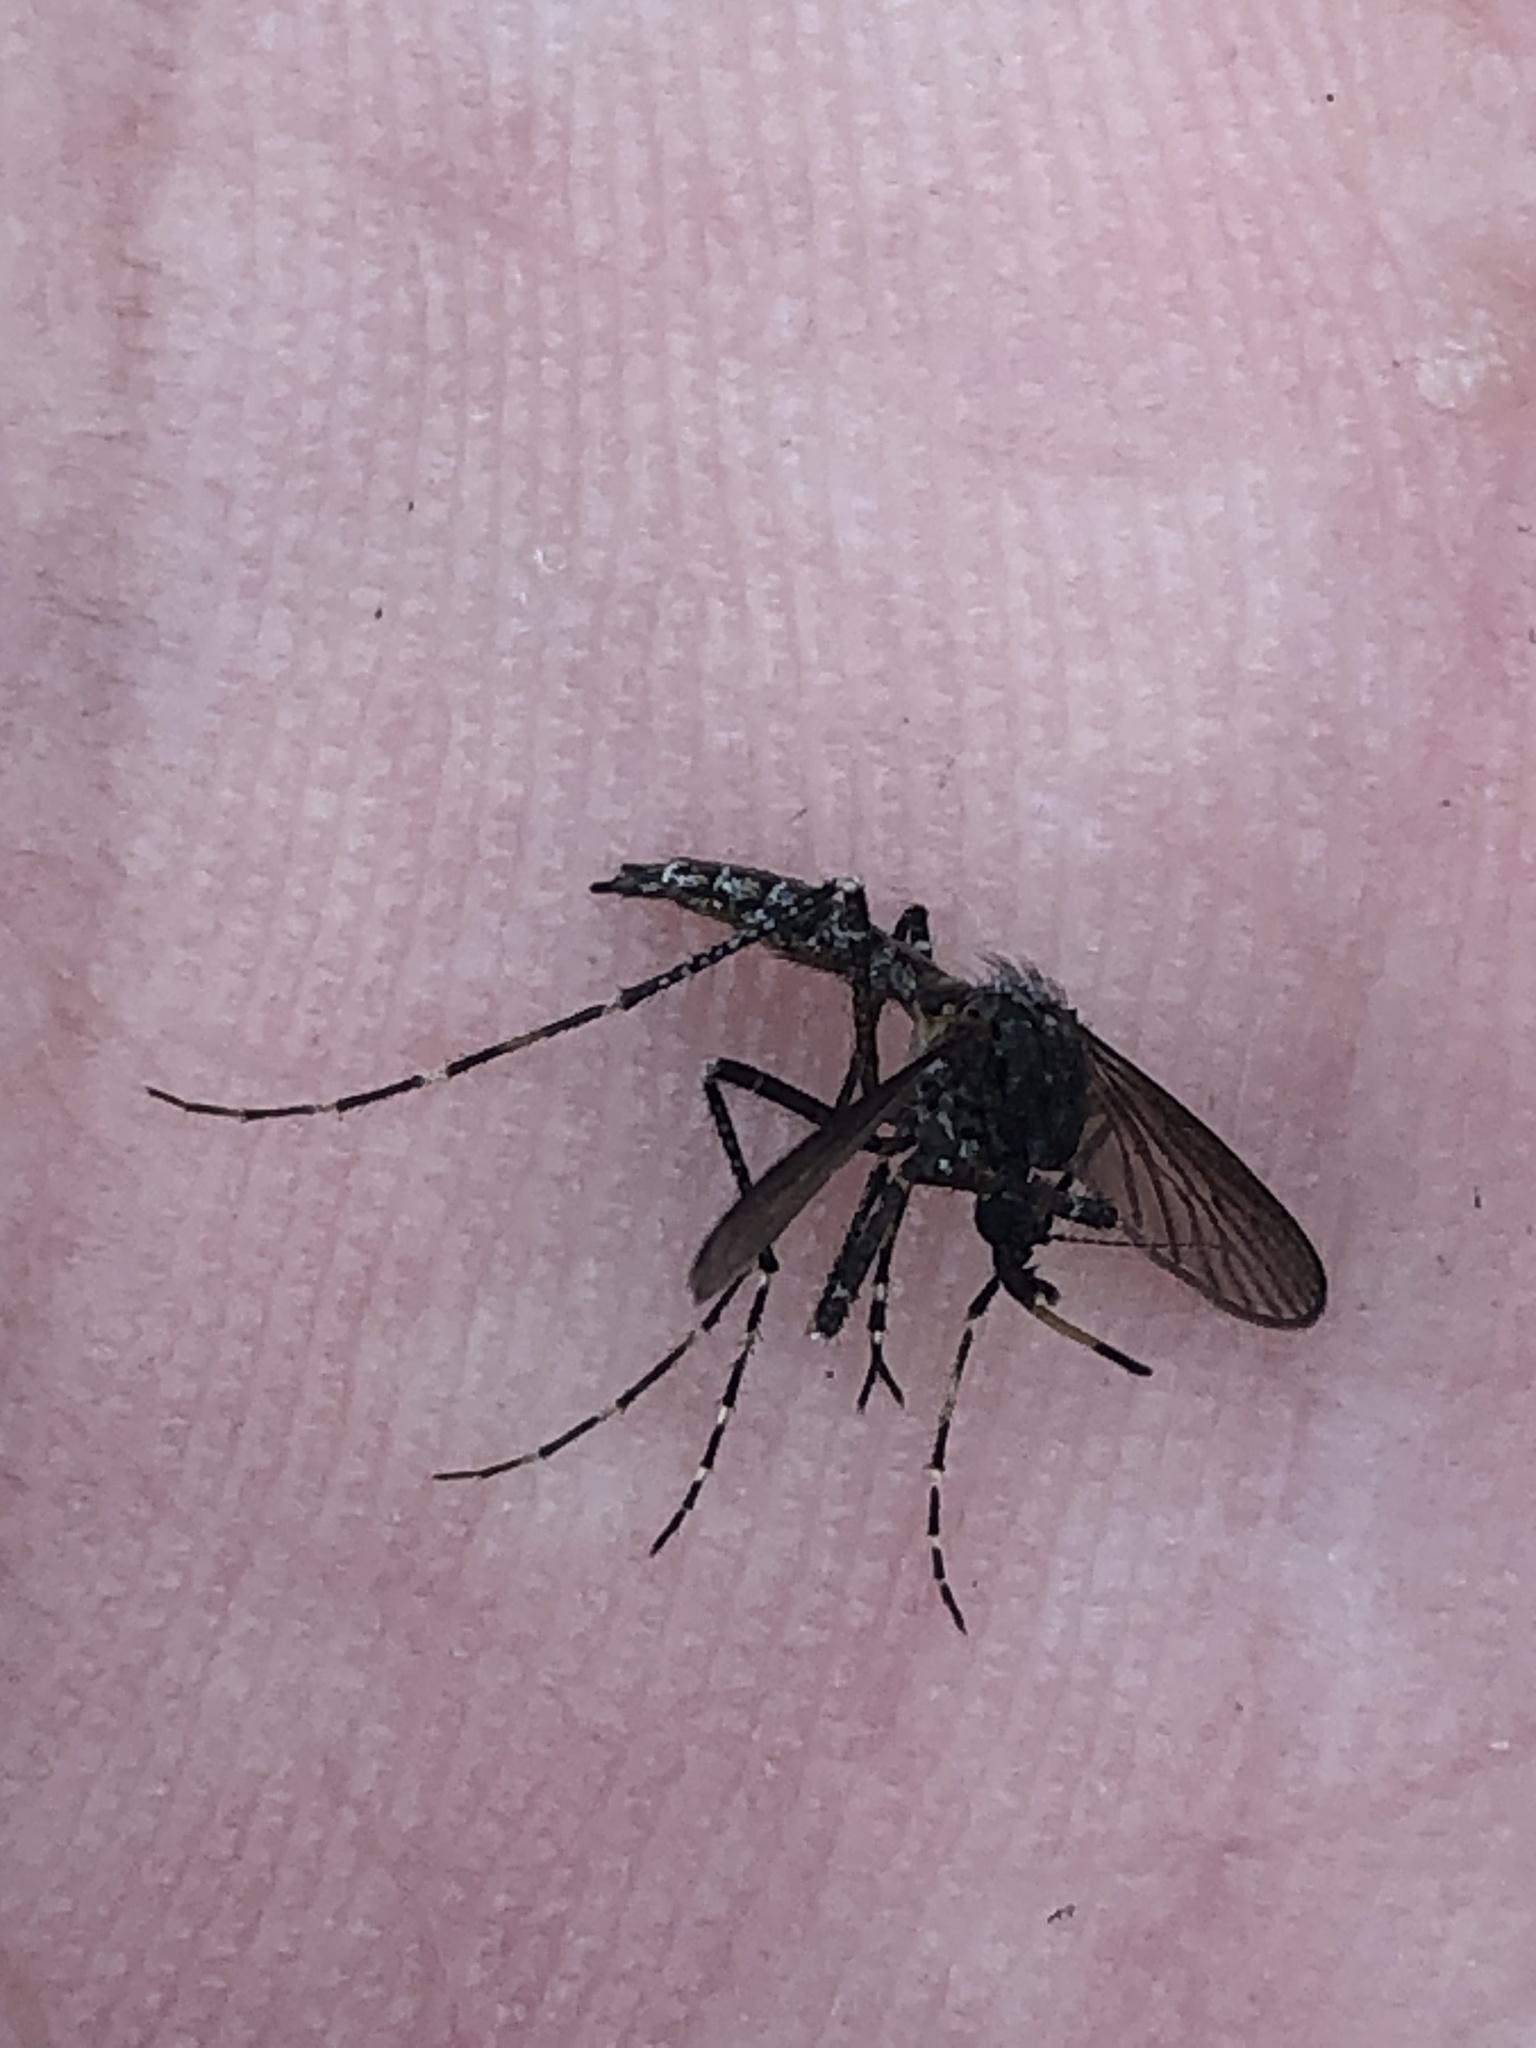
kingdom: Animalia
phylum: Arthropoda
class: Insecta
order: Diptera
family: Culicidae
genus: Psorophora
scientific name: Psorophora columbiae
